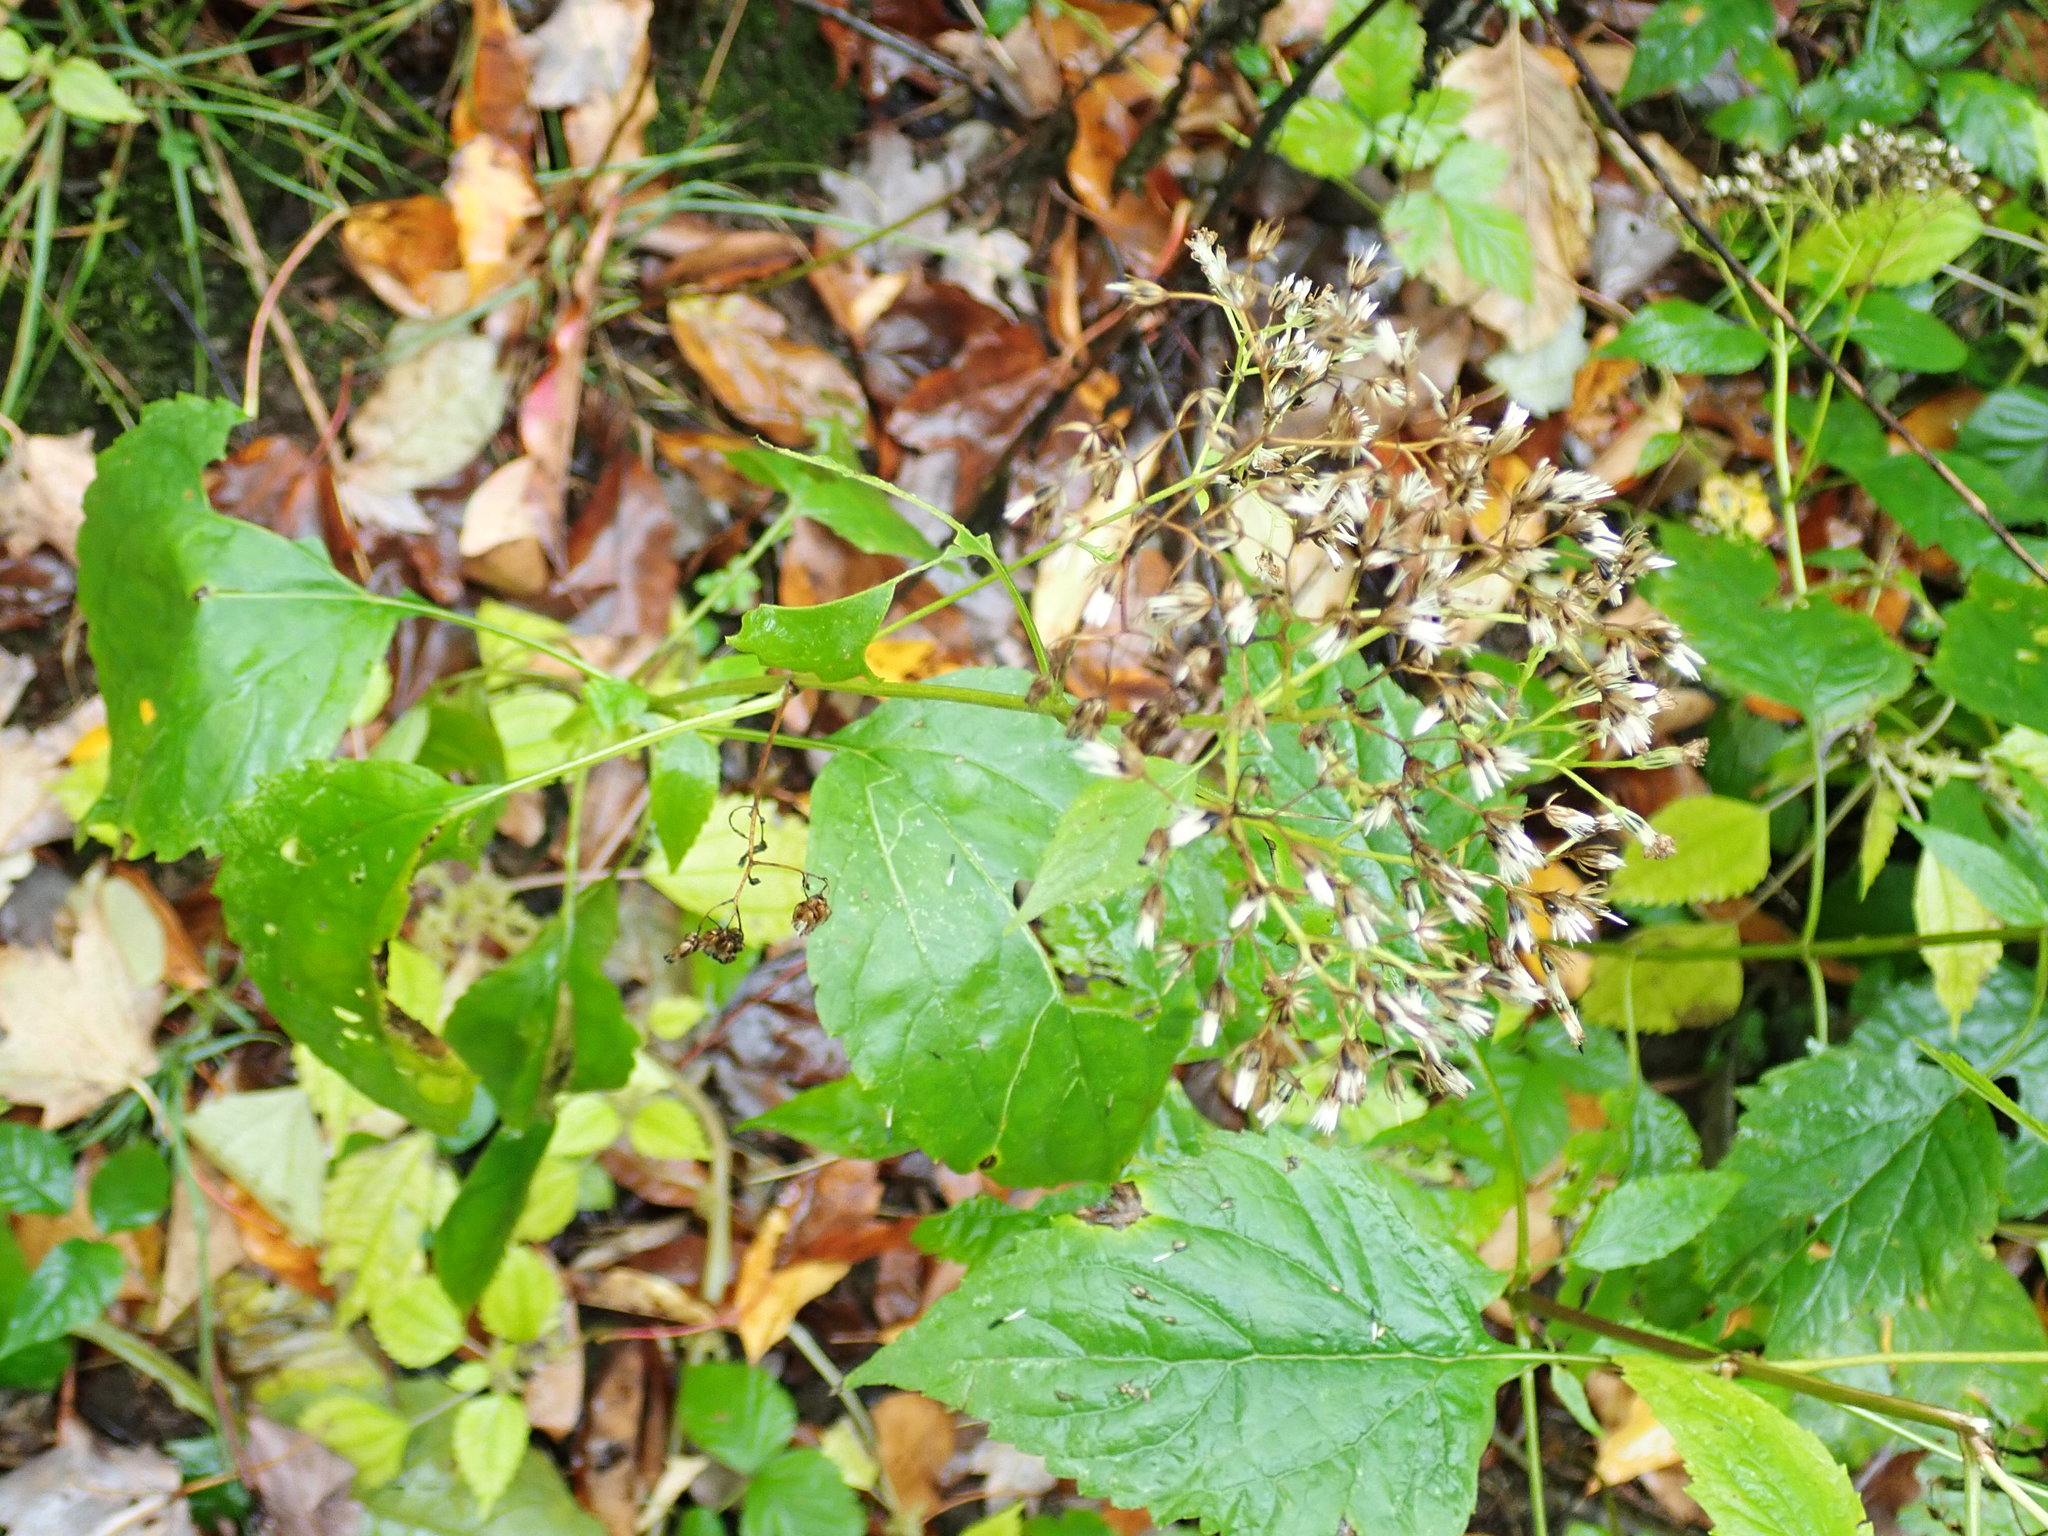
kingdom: Plantae
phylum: Tracheophyta
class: Magnoliopsida
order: Asterales
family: Asteraceae
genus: Ageratina
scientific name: Ageratina altissima
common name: White snakeroot
